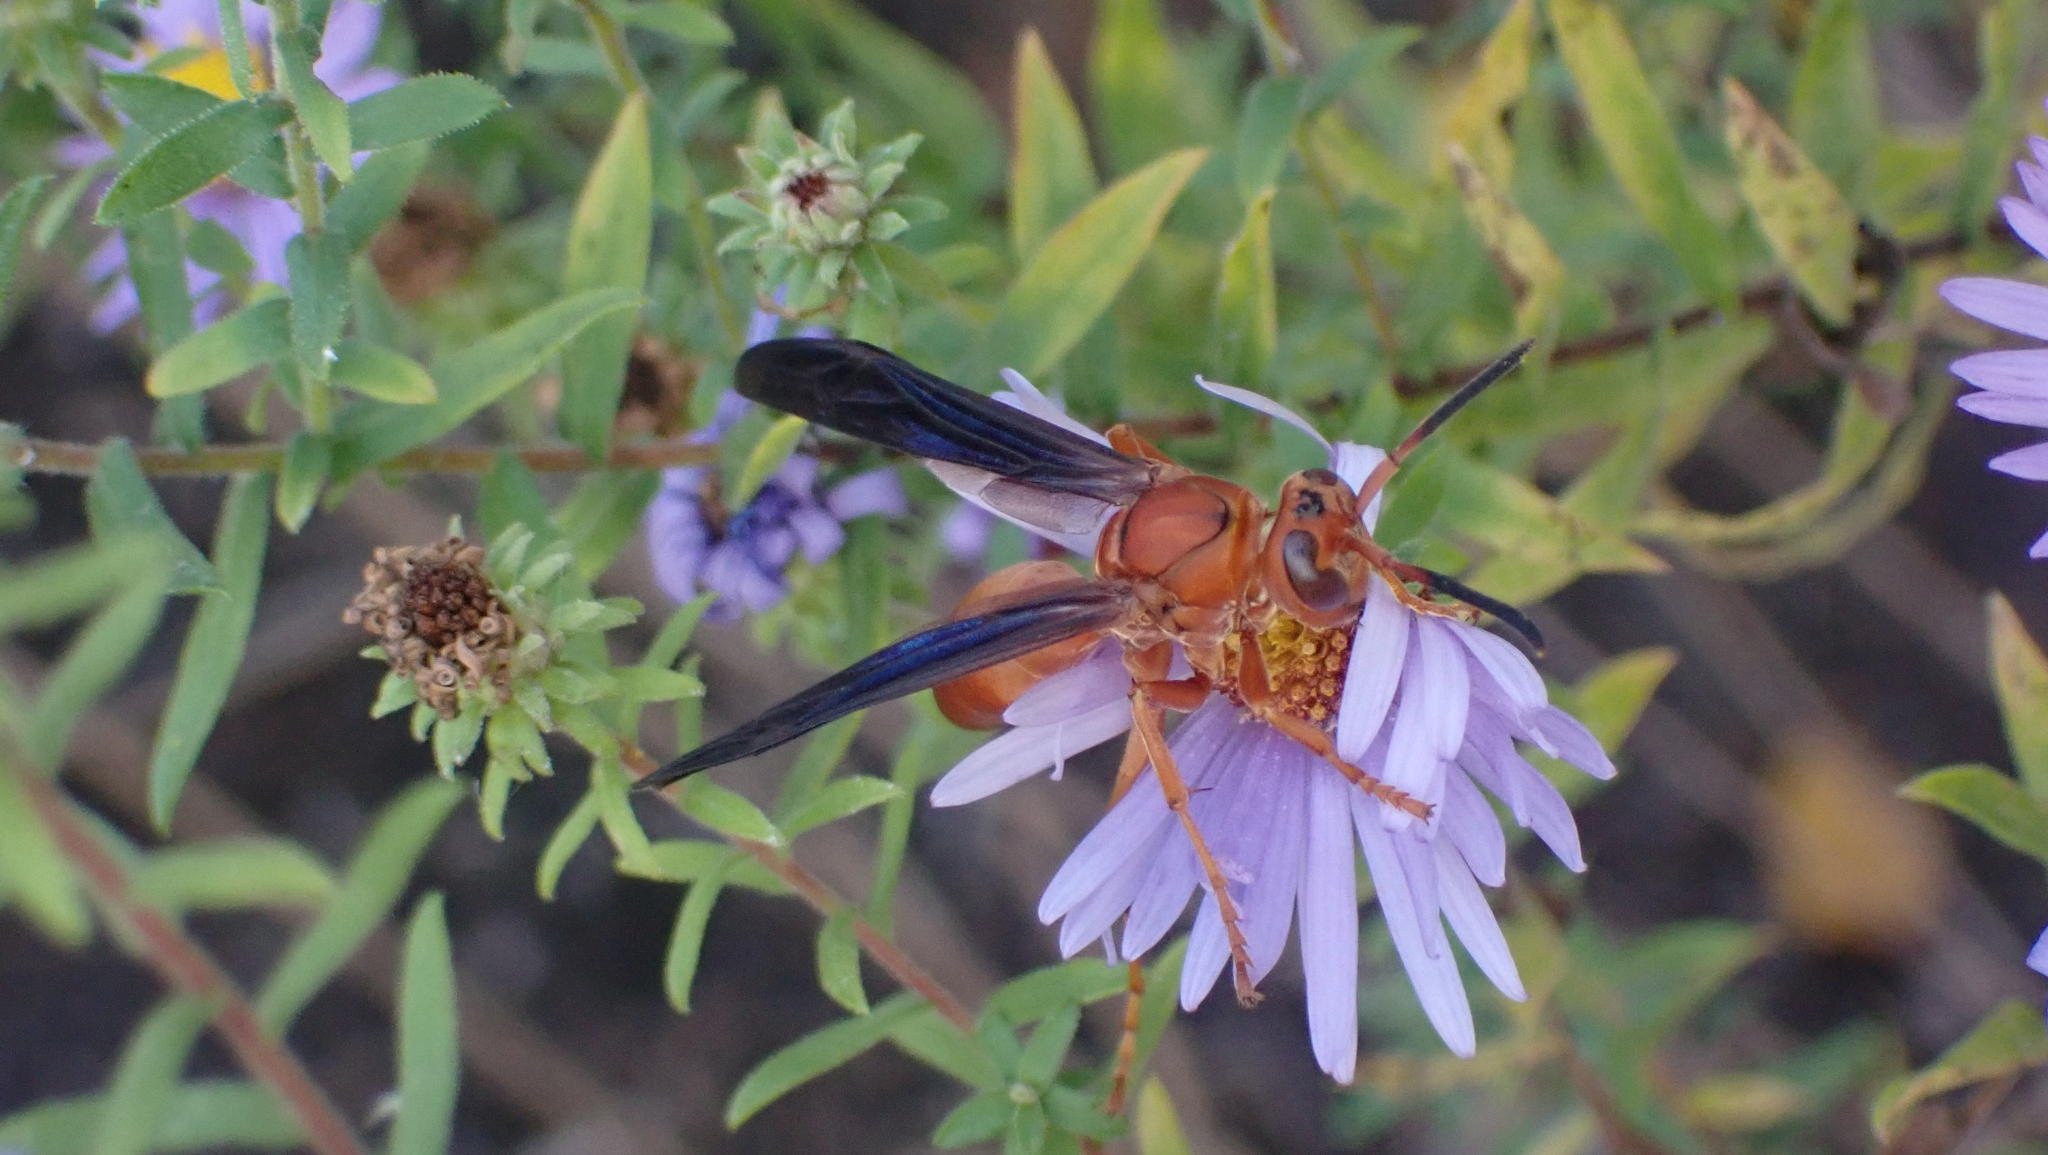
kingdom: Animalia
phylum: Arthropoda
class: Insecta
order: Hymenoptera
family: Vespidae
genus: Fuscopolistes
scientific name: Fuscopolistes
